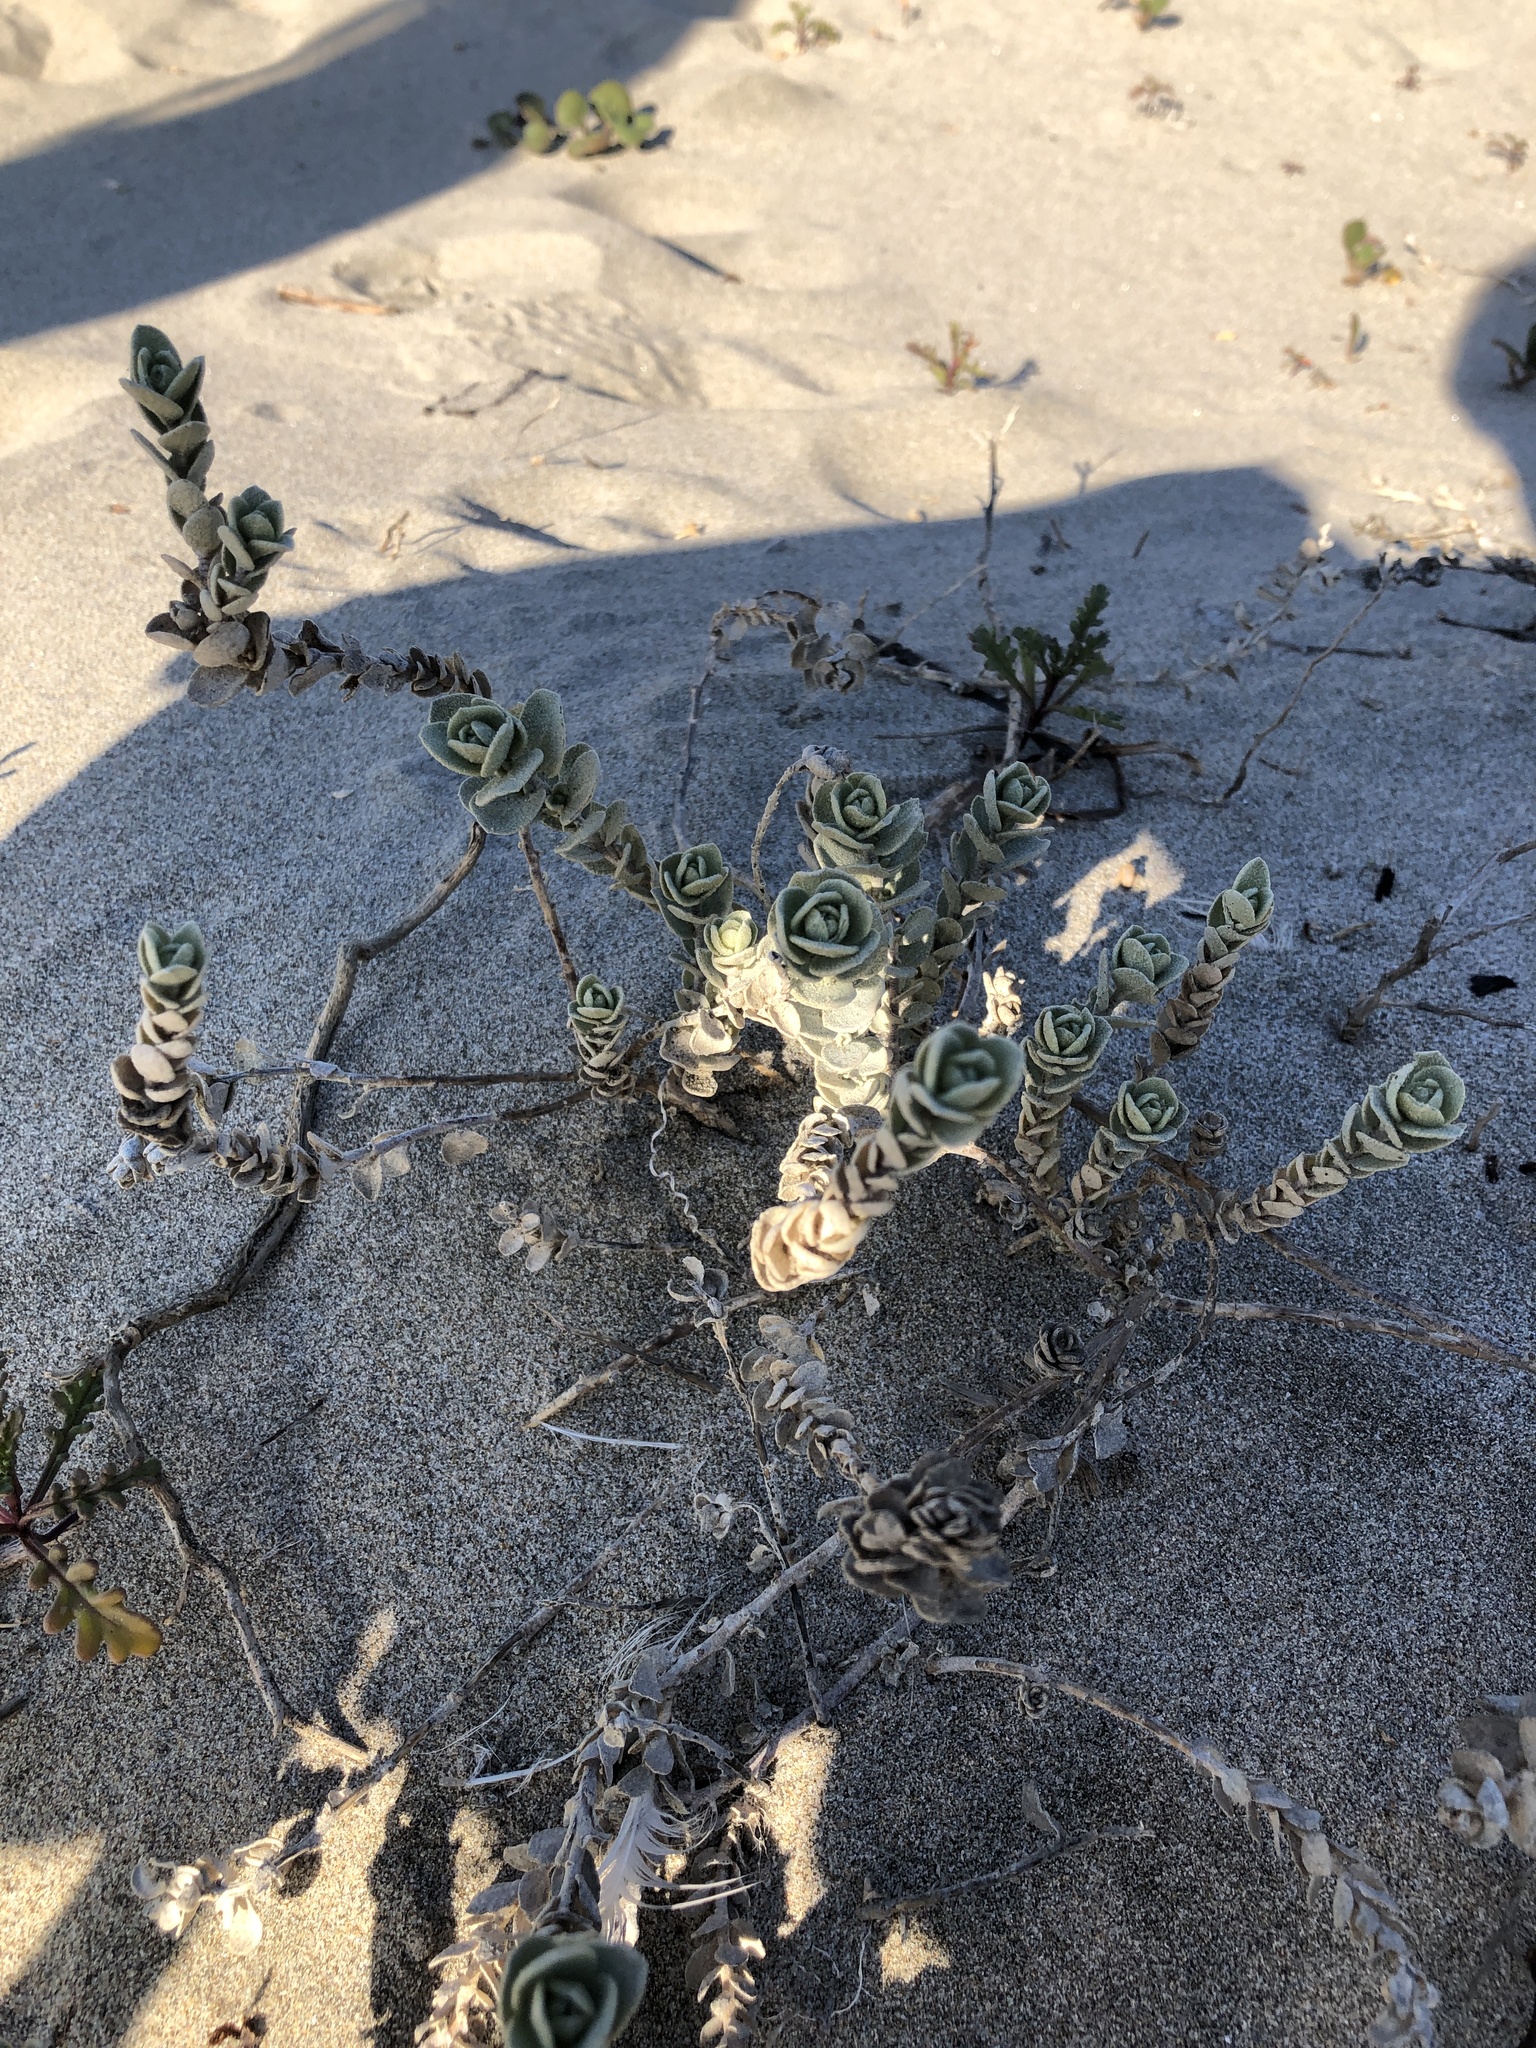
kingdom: Plantae
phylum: Tracheophyta
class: Magnoliopsida
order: Caryophyllales
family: Amaranthaceae
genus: Atriplex
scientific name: Atriplex leucophylla
